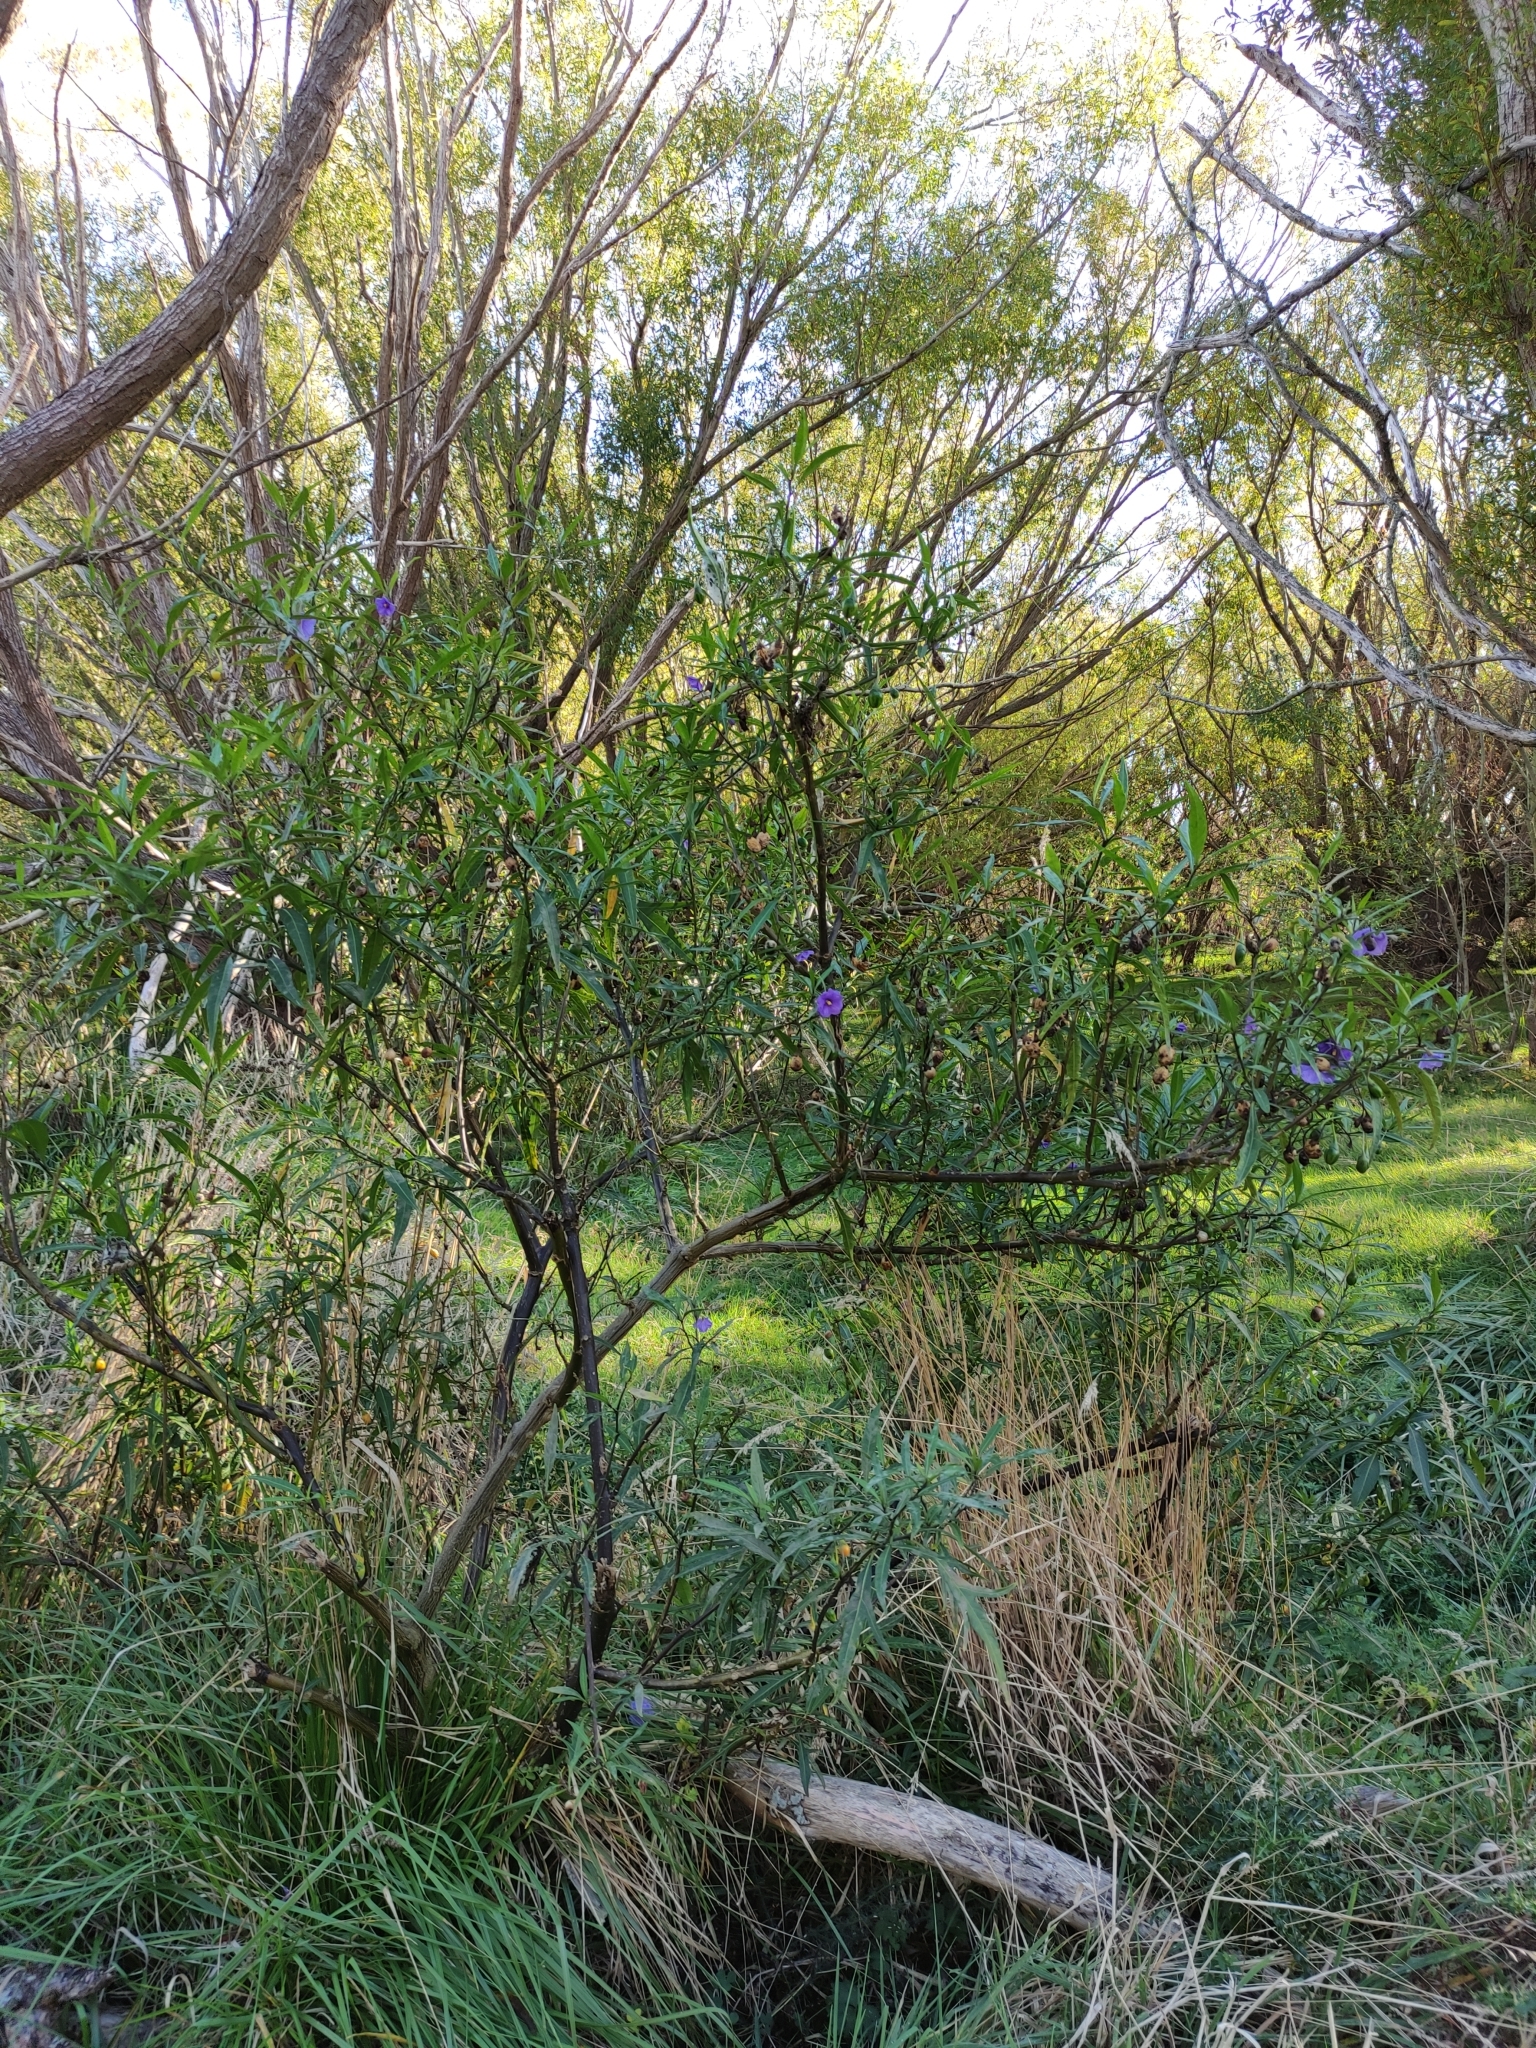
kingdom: Plantae
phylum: Tracheophyta
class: Magnoliopsida
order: Solanales
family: Solanaceae
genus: Solanum
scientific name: Solanum laciniatum
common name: Kangaroo-apple
